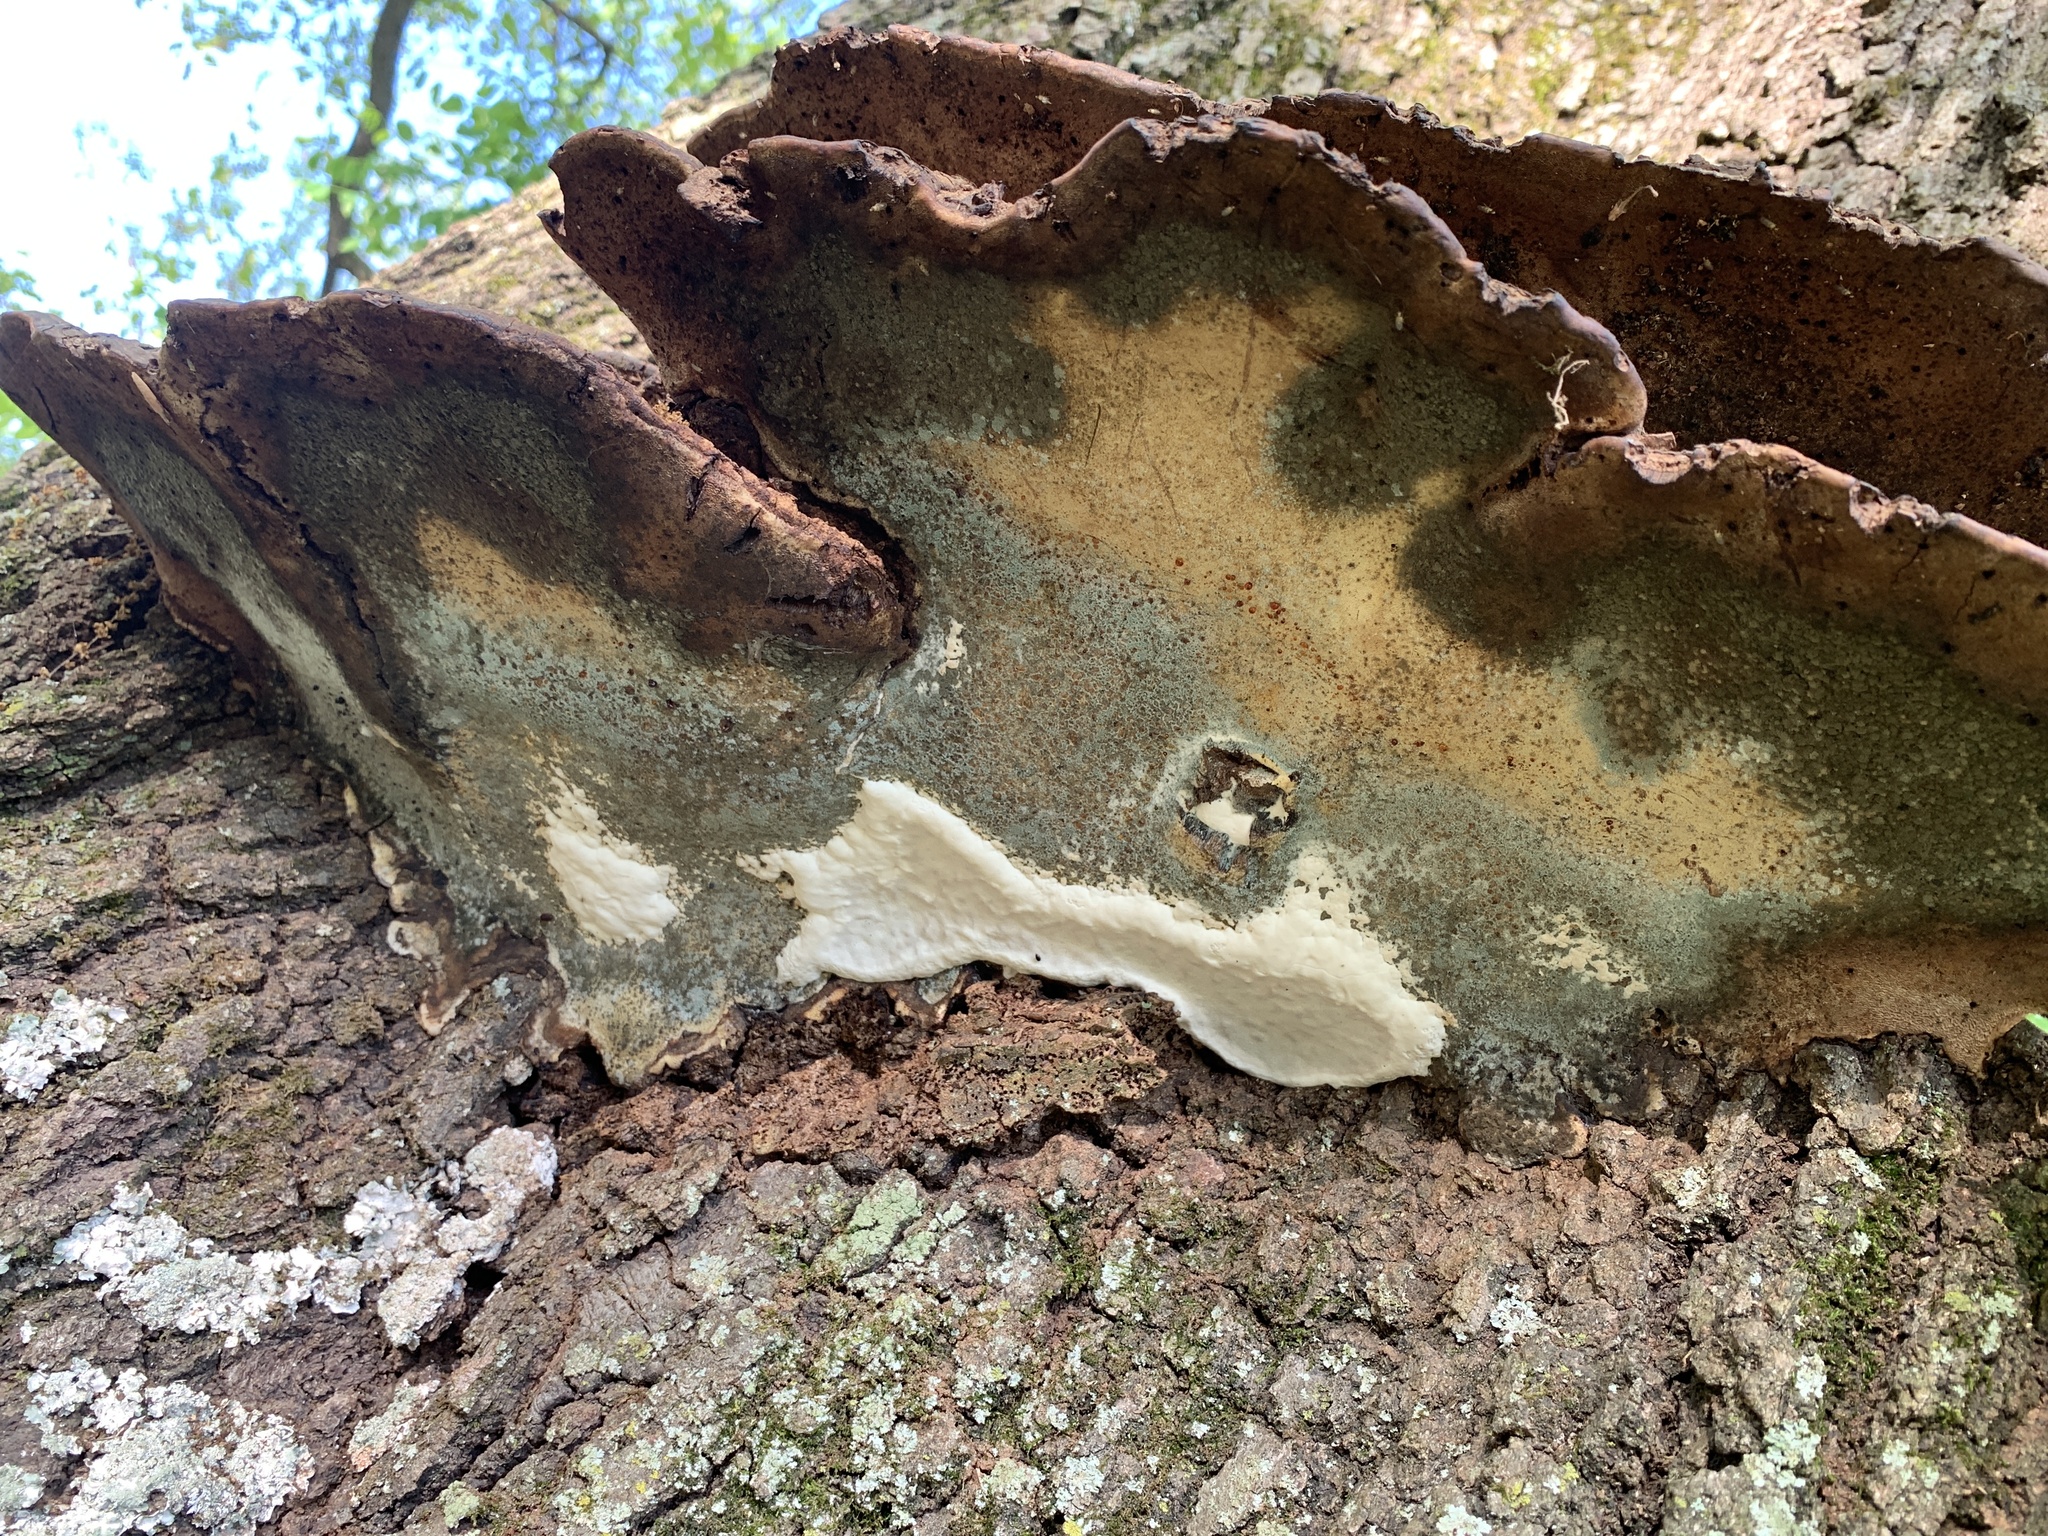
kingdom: Fungi
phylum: Basidiomycota
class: Agaricomycetes
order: Polyporales
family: Polyporaceae
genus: Ganoderma
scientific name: Ganoderma applanatum
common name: Artist's bracket
